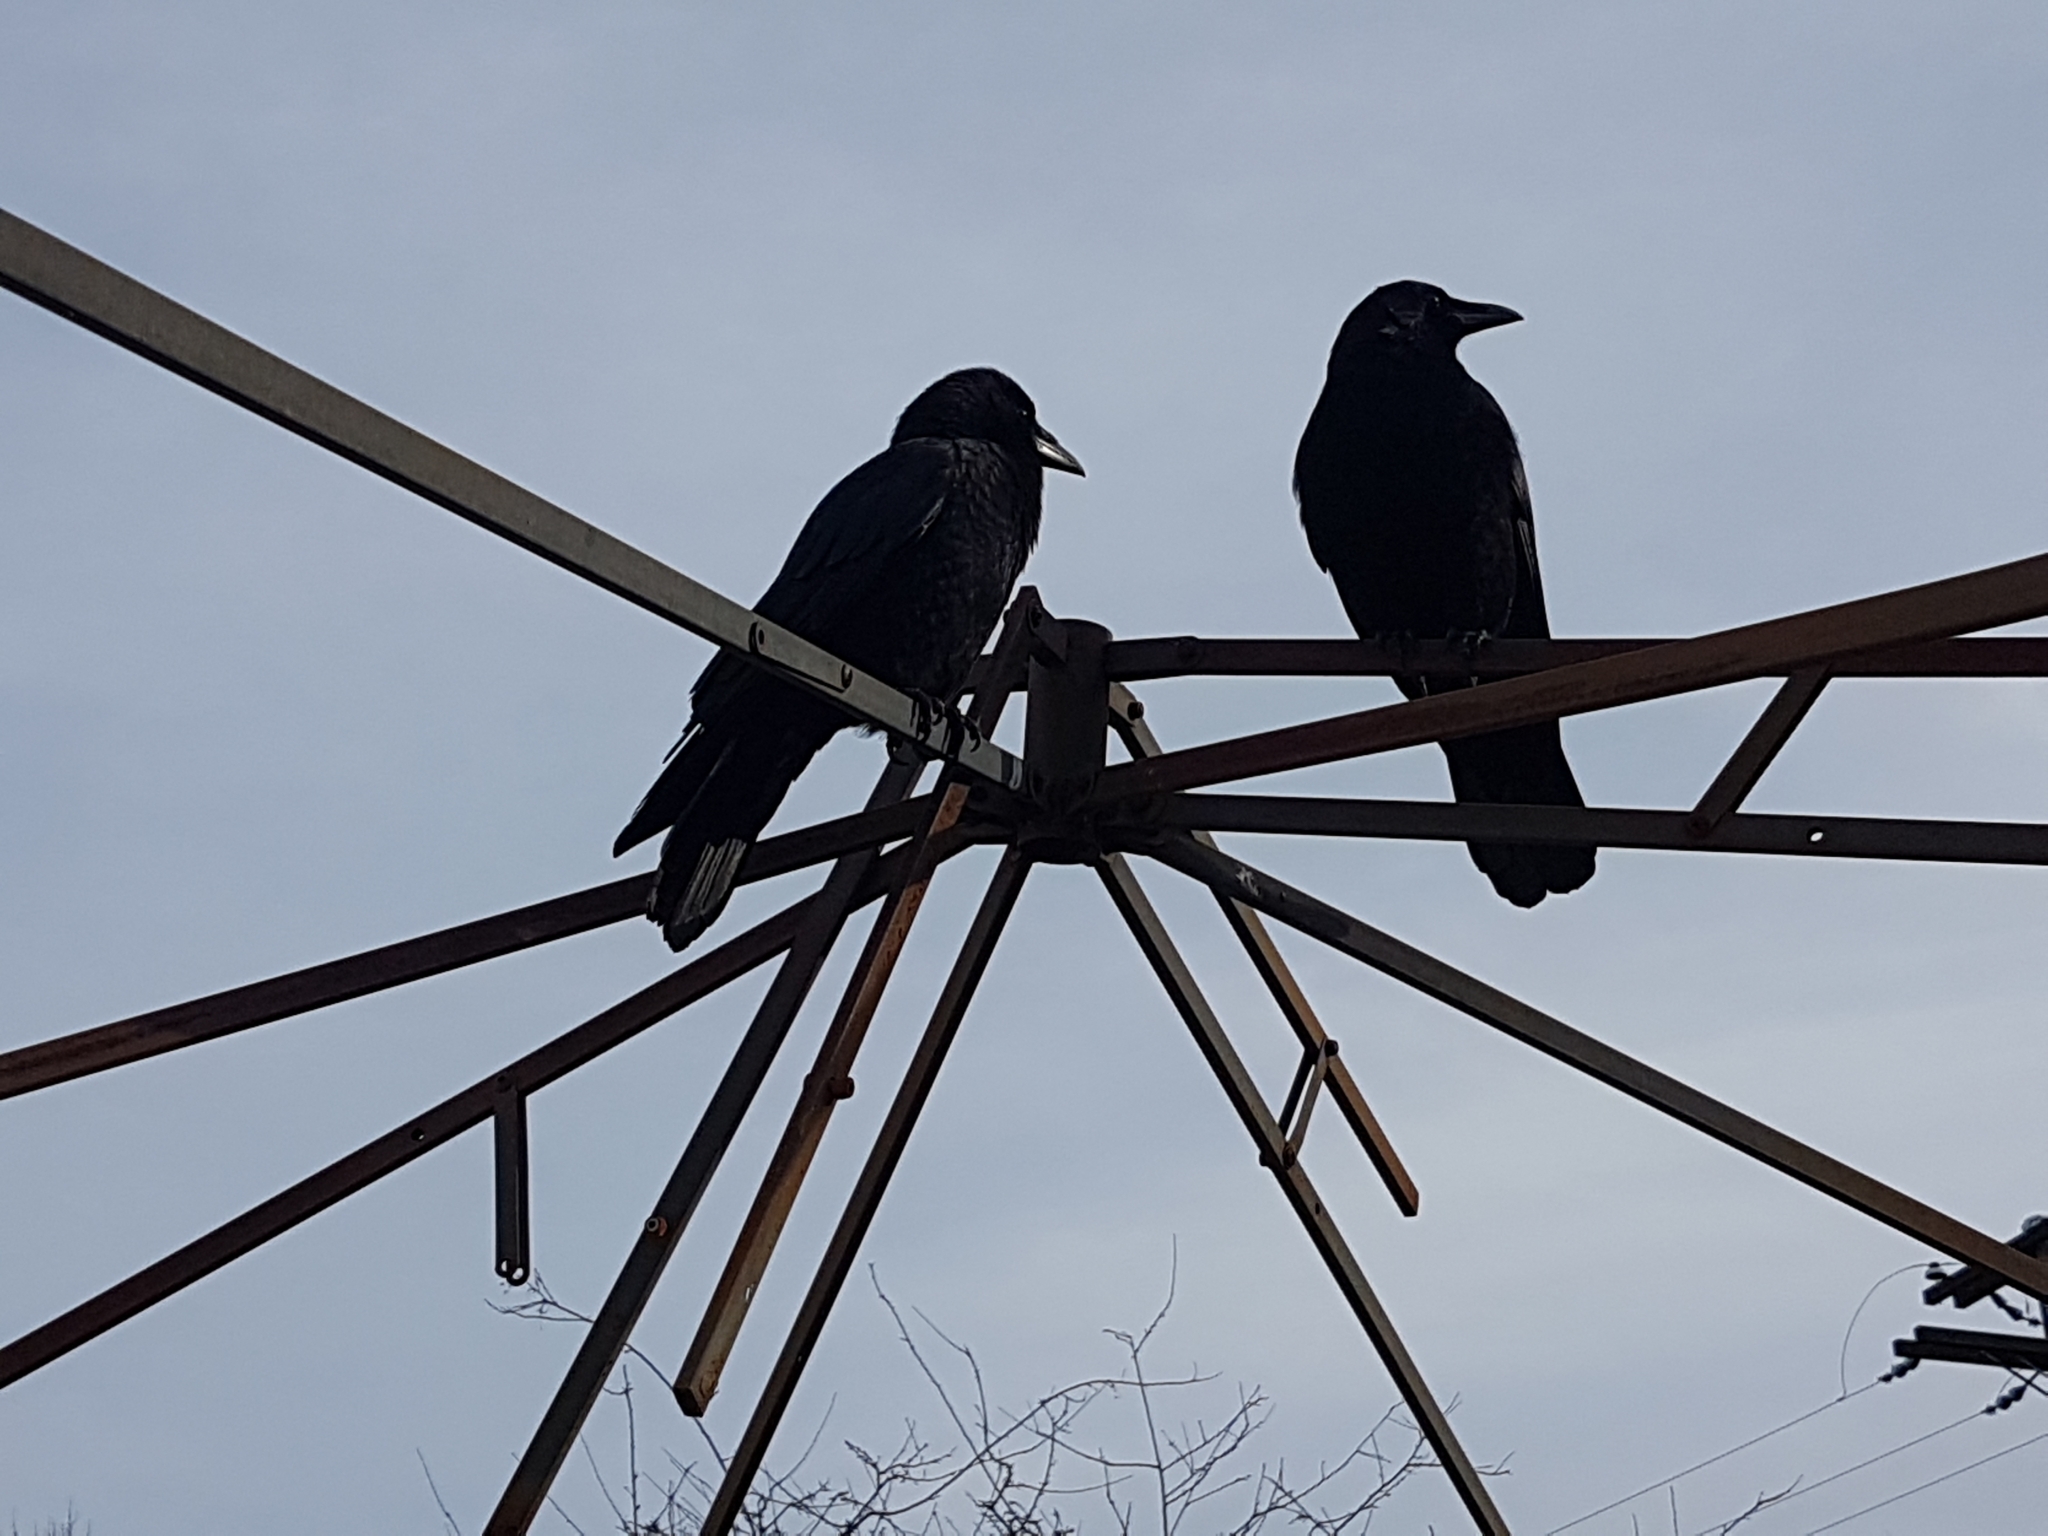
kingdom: Animalia
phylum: Chordata
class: Aves
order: Passeriformes
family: Corvidae
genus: Corvus
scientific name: Corvus brachyrhynchos
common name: American crow
